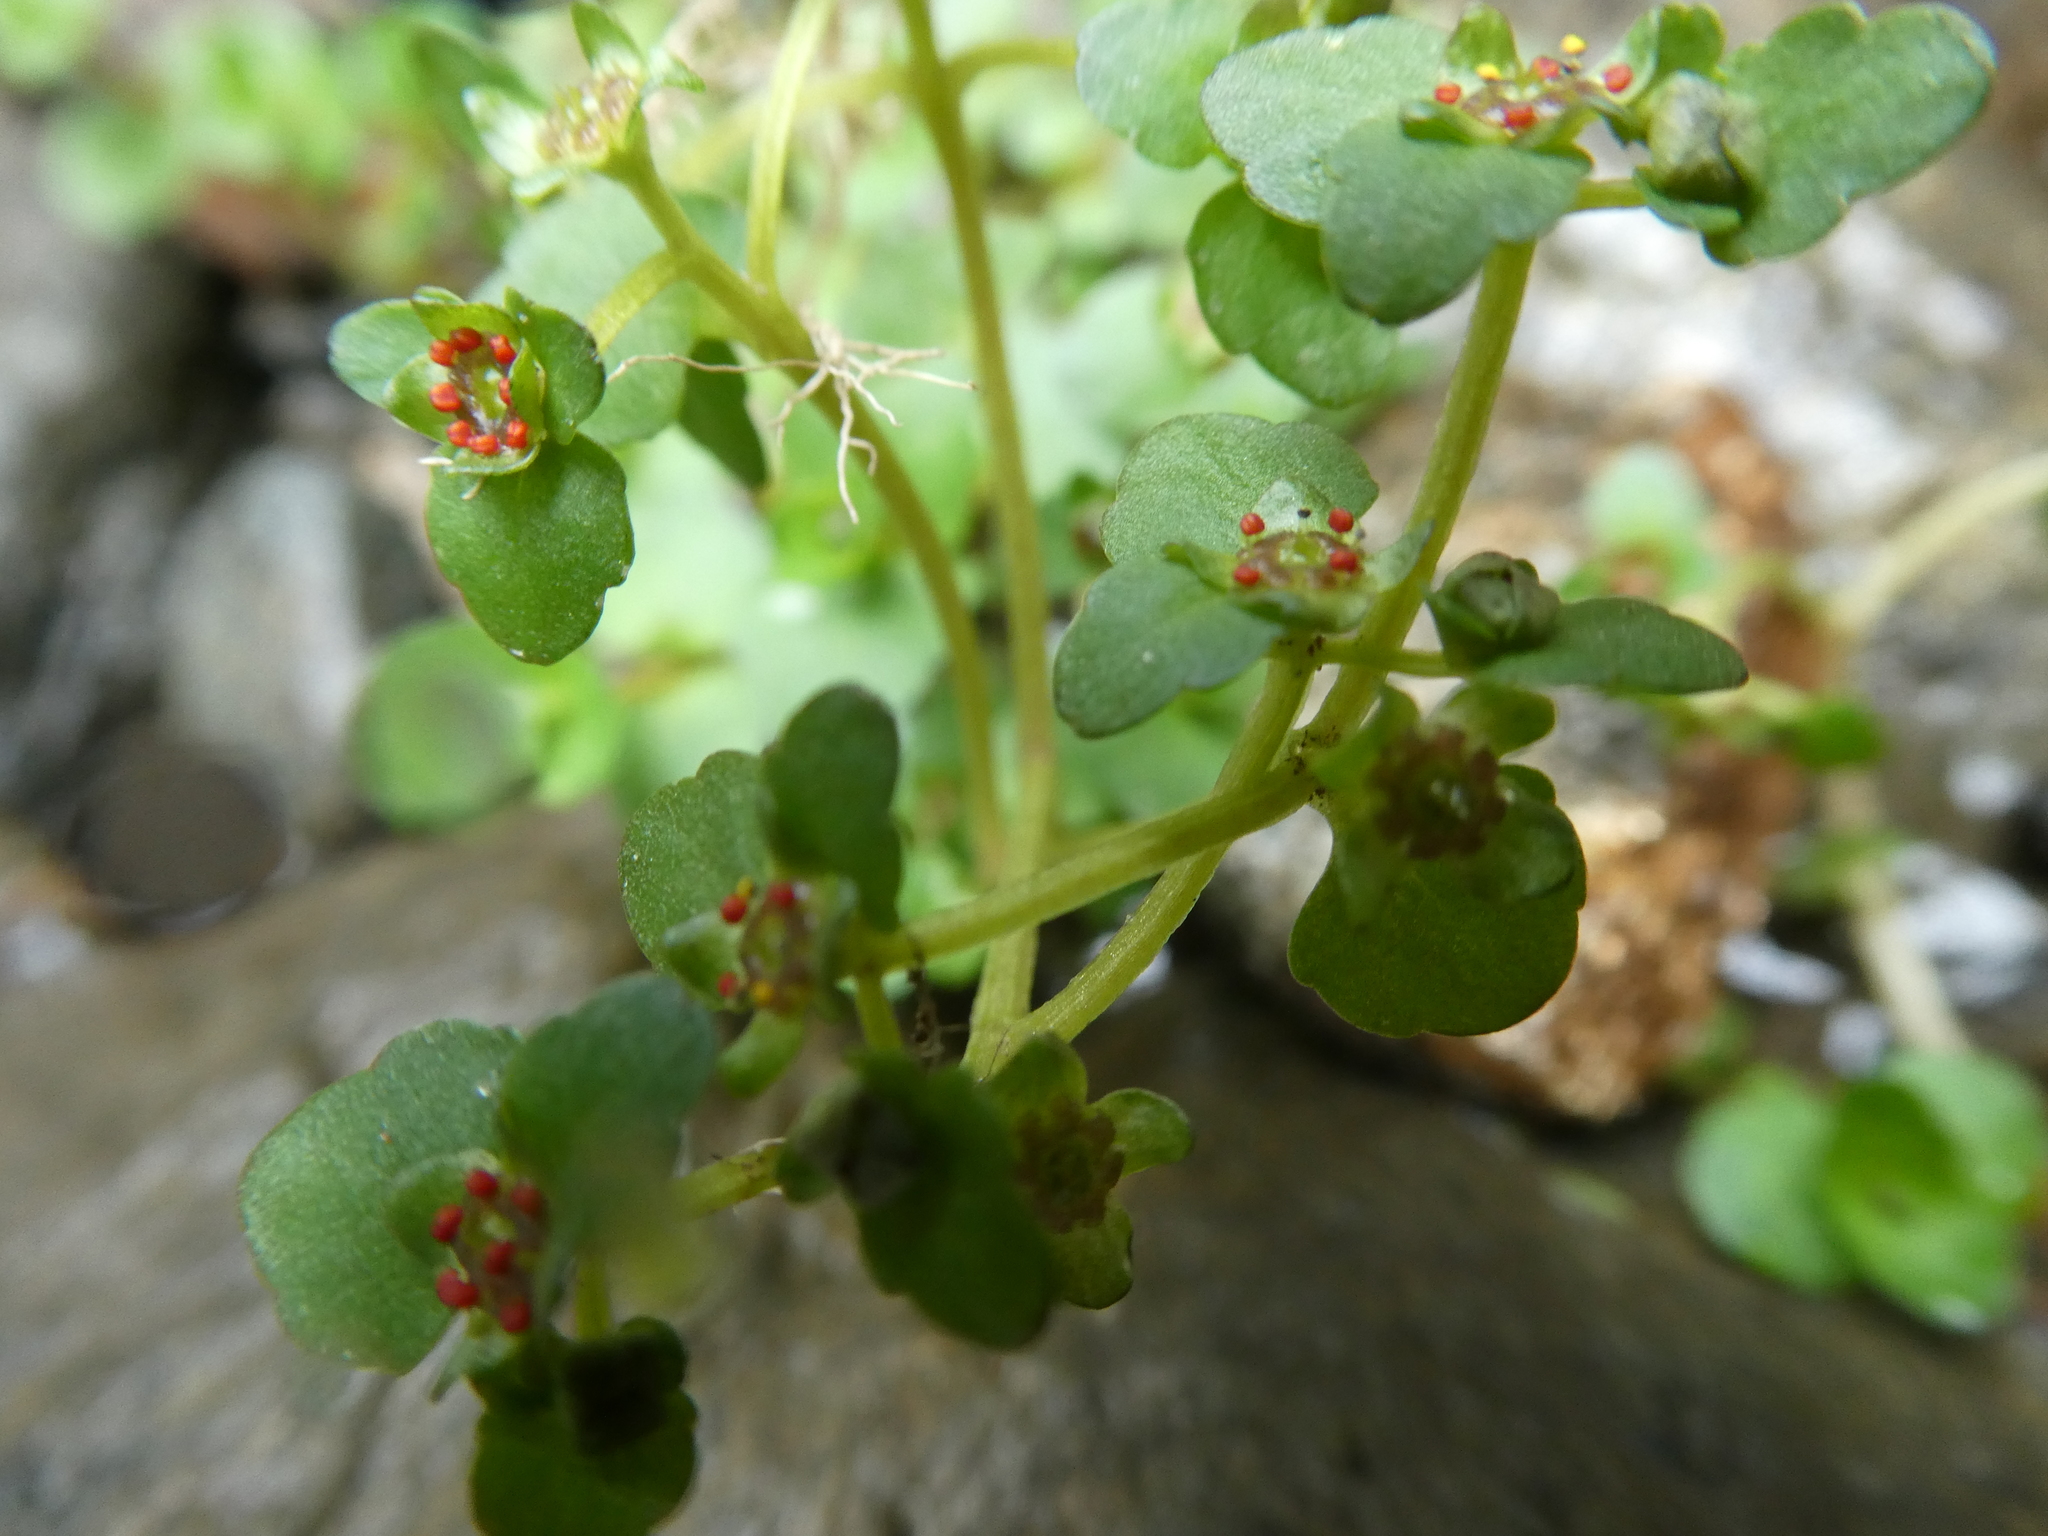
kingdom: Plantae
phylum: Tracheophyta
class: Magnoliopsida
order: Saxifragales
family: Saxifragaceae
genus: Chrysosplenium
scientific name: Chrysosplenium americanum
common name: American golden-saxifrage
